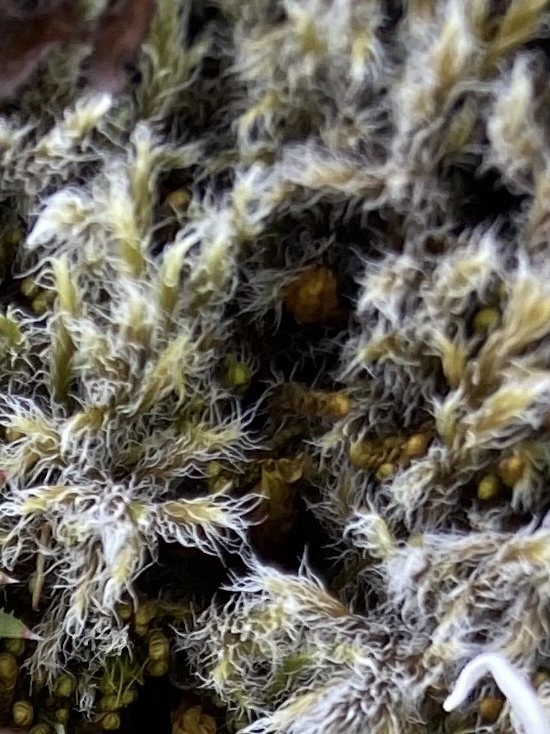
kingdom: Plantae
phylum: Bryophyta
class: Bryopsida
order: Grimmiales
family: Grimmiaceae
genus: Racomitrium
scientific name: Racomitrium lanuginosum
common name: Hoary rock moss
